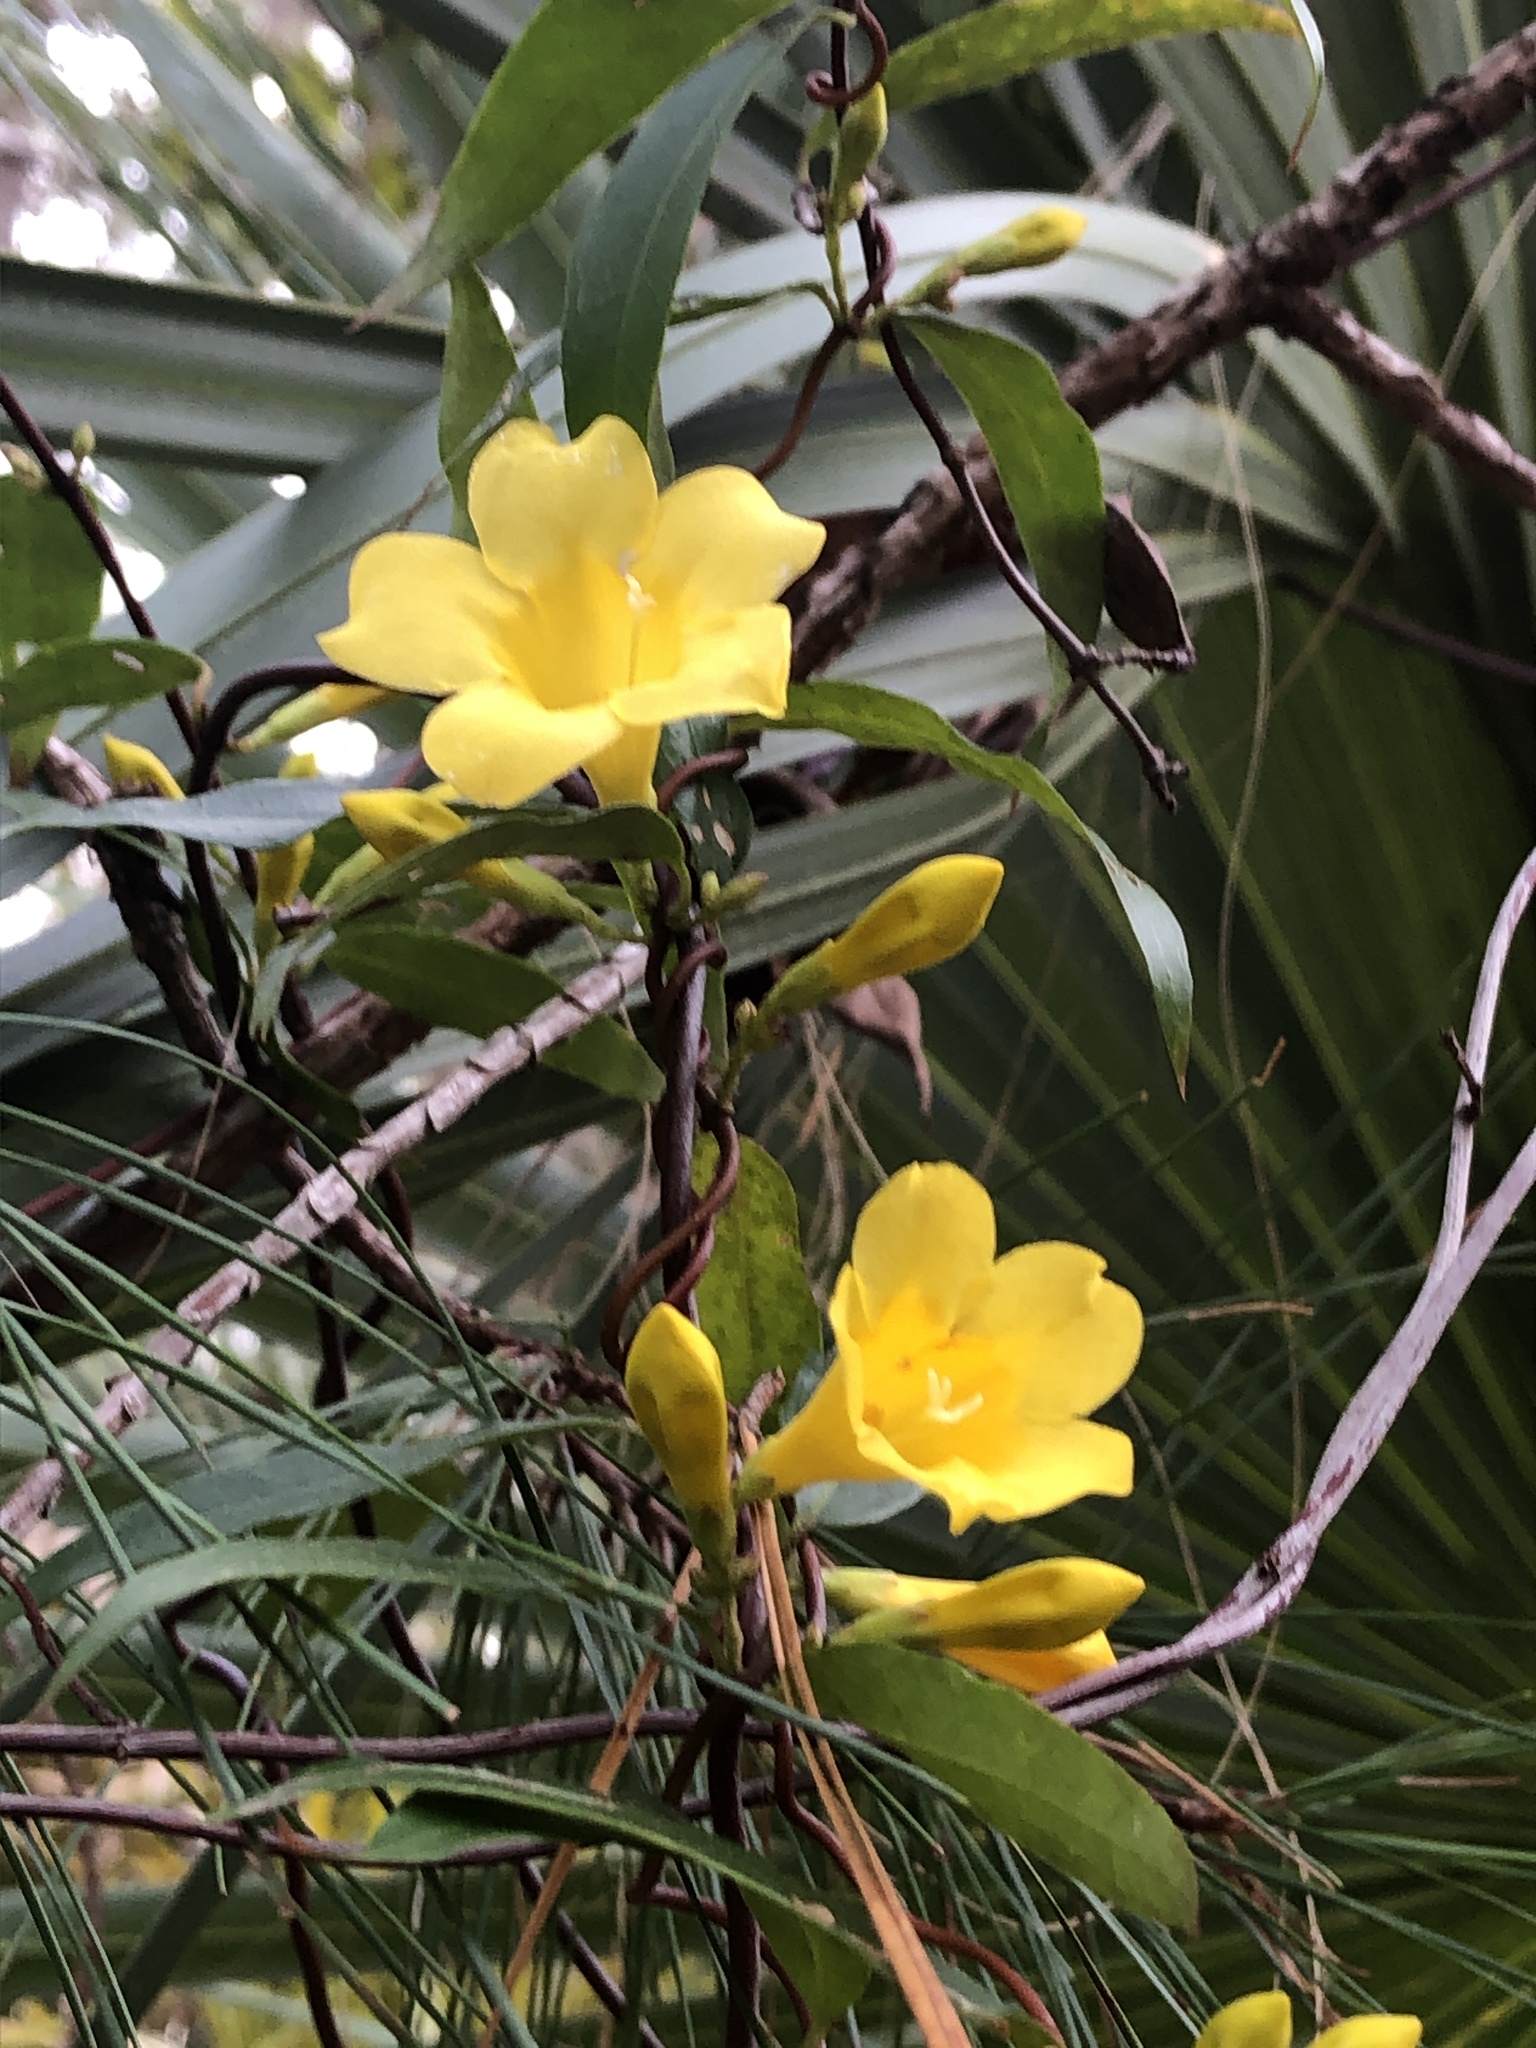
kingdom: Plantae
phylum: Tracheophyta
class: Magnoliopsida
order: Gentianales
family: Gelsemiaceae
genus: Gelsemium
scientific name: Gelsemium sempervirens
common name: Carolina-jasmine
